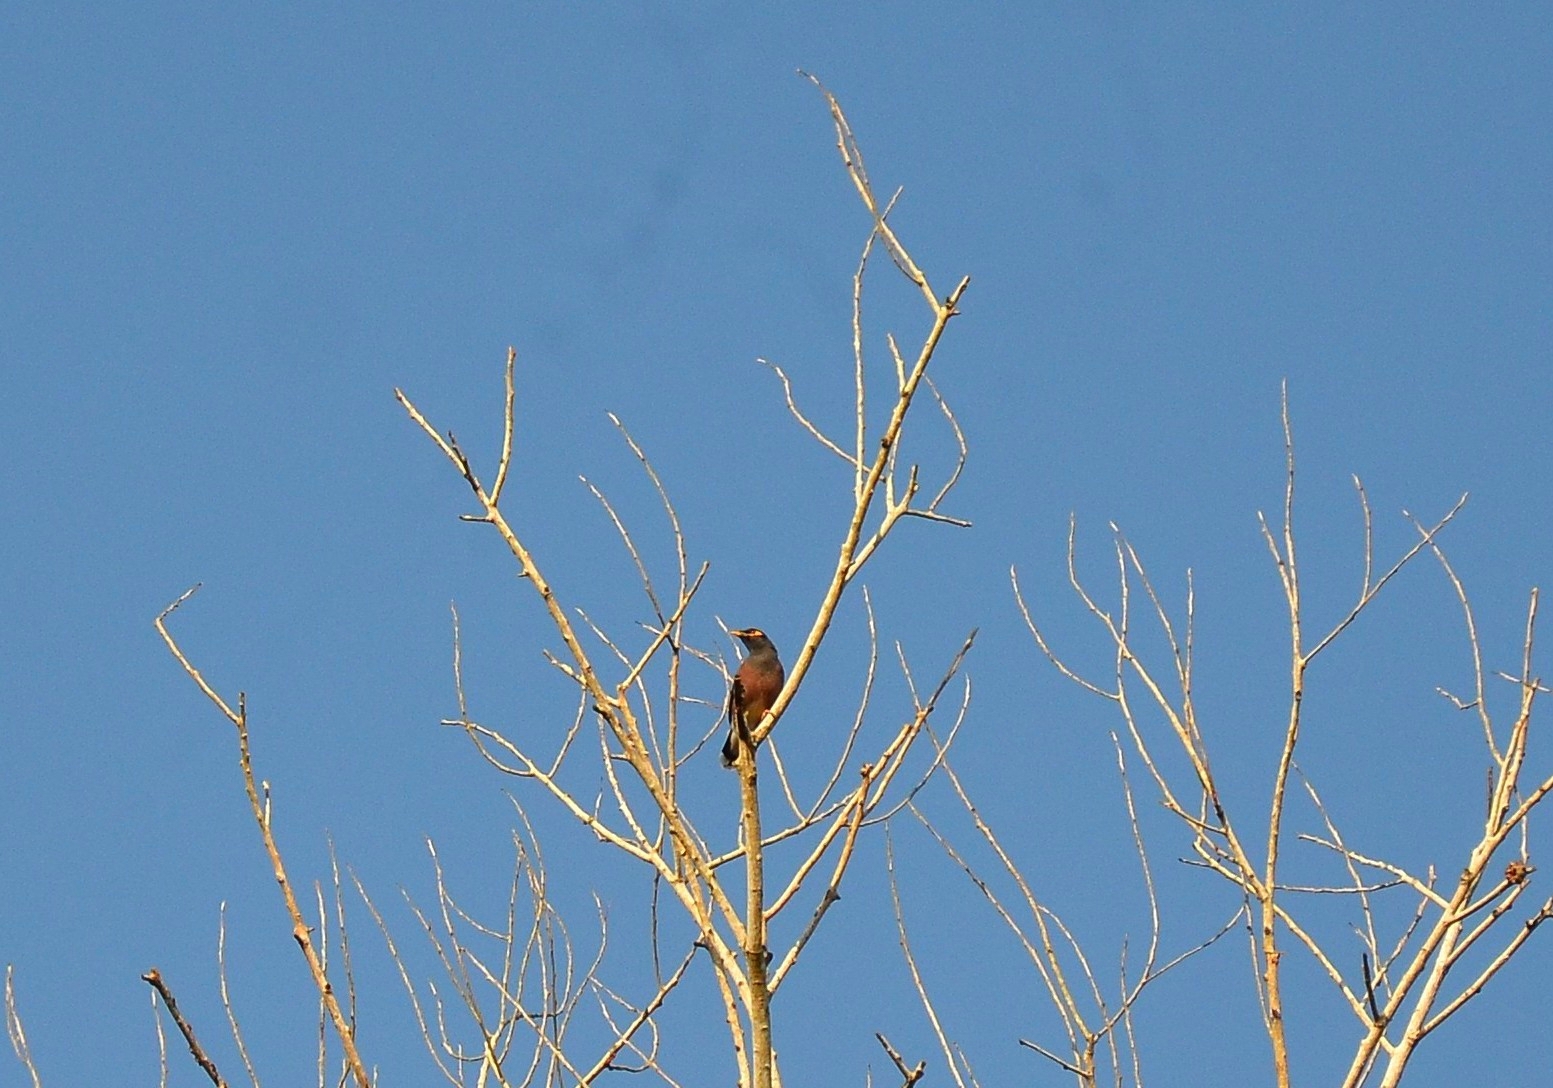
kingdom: Animalia
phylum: Chordata
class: Aves
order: Passeriformes
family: Sturnidae
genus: Acridotheres
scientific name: Acridotheres tristis
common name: Common myna
